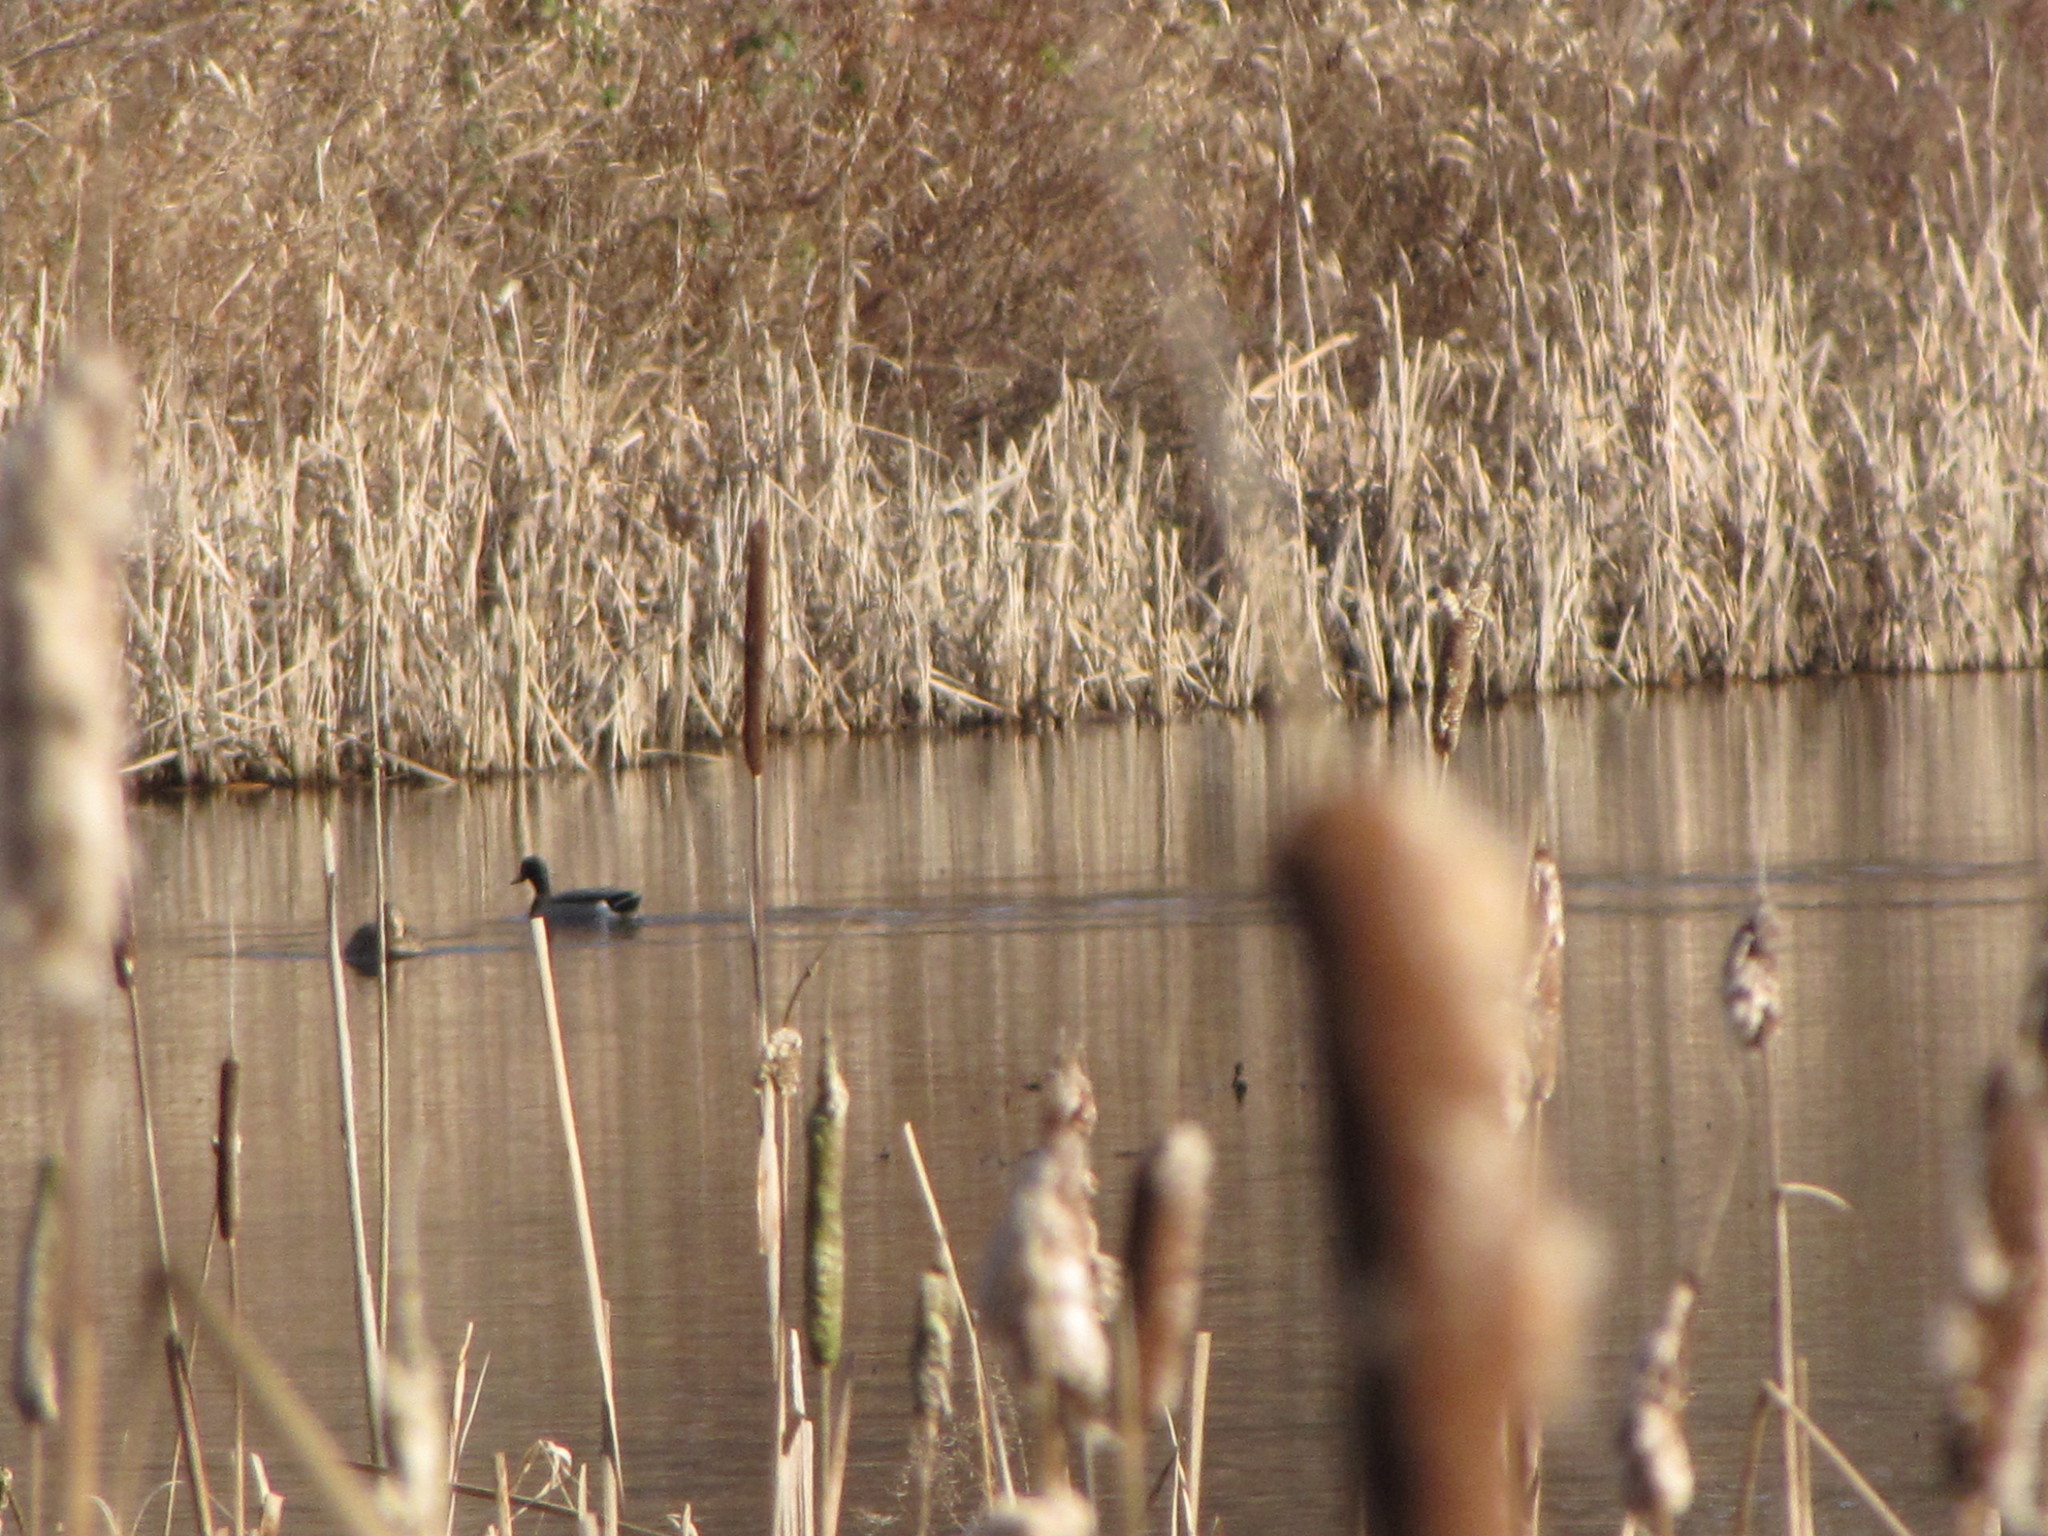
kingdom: Animalia
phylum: Chordata
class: Aves
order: Anseriformes
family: Anatidae
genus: Anas
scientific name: Anas platyrhynchos
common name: Mallard
